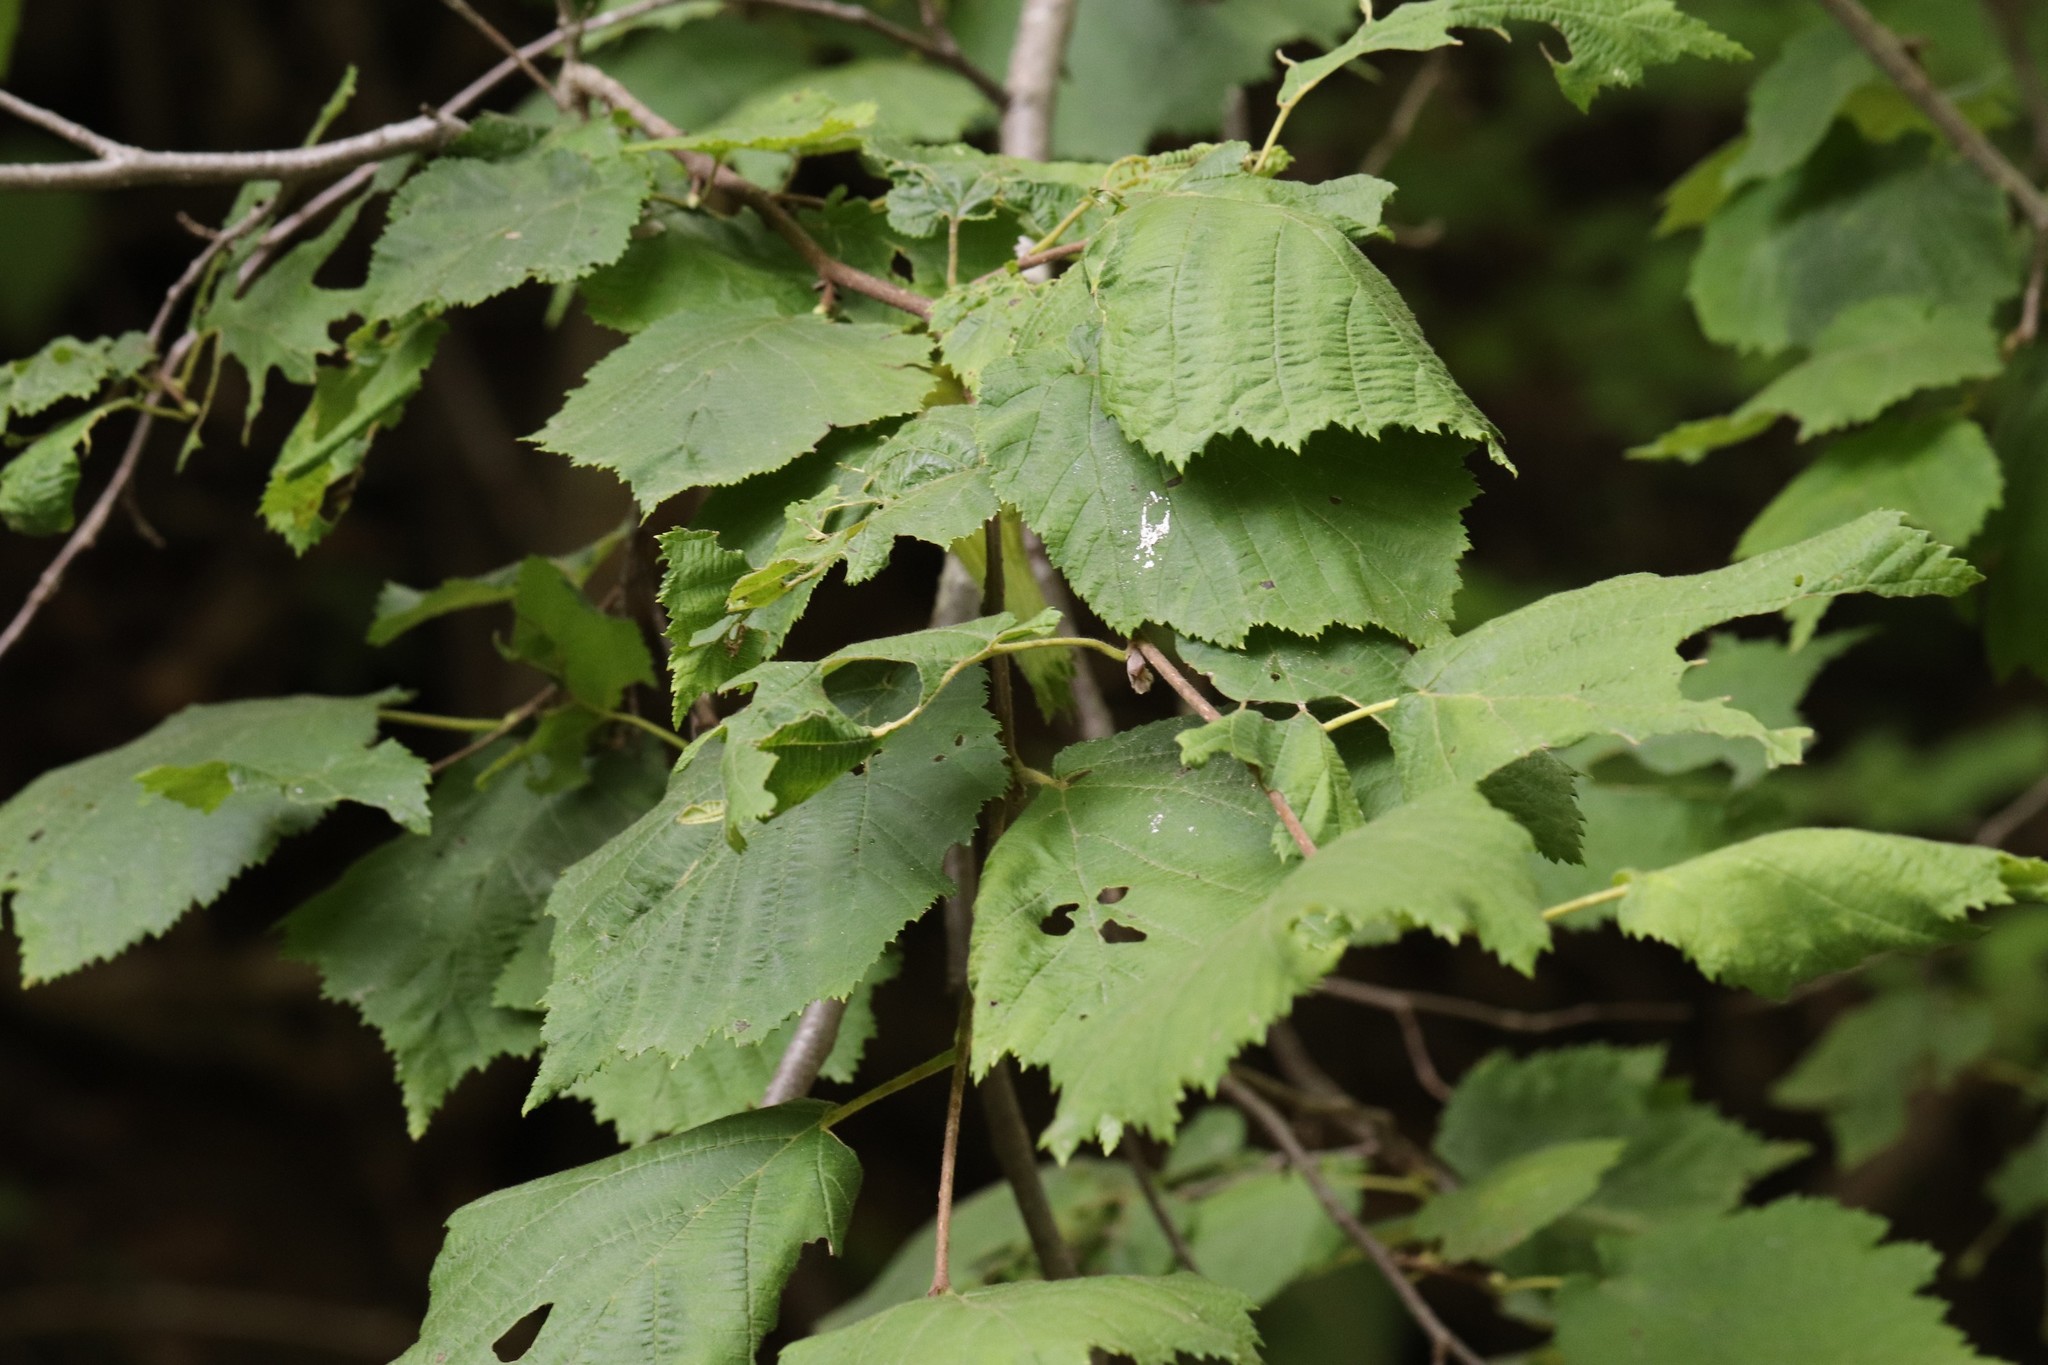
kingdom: Plantae
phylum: Tracheophyta
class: Magnoliopsida
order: Fagales
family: Betulaceae
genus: Corylus
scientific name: Corylus sieboldiana
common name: Japanese hazel
